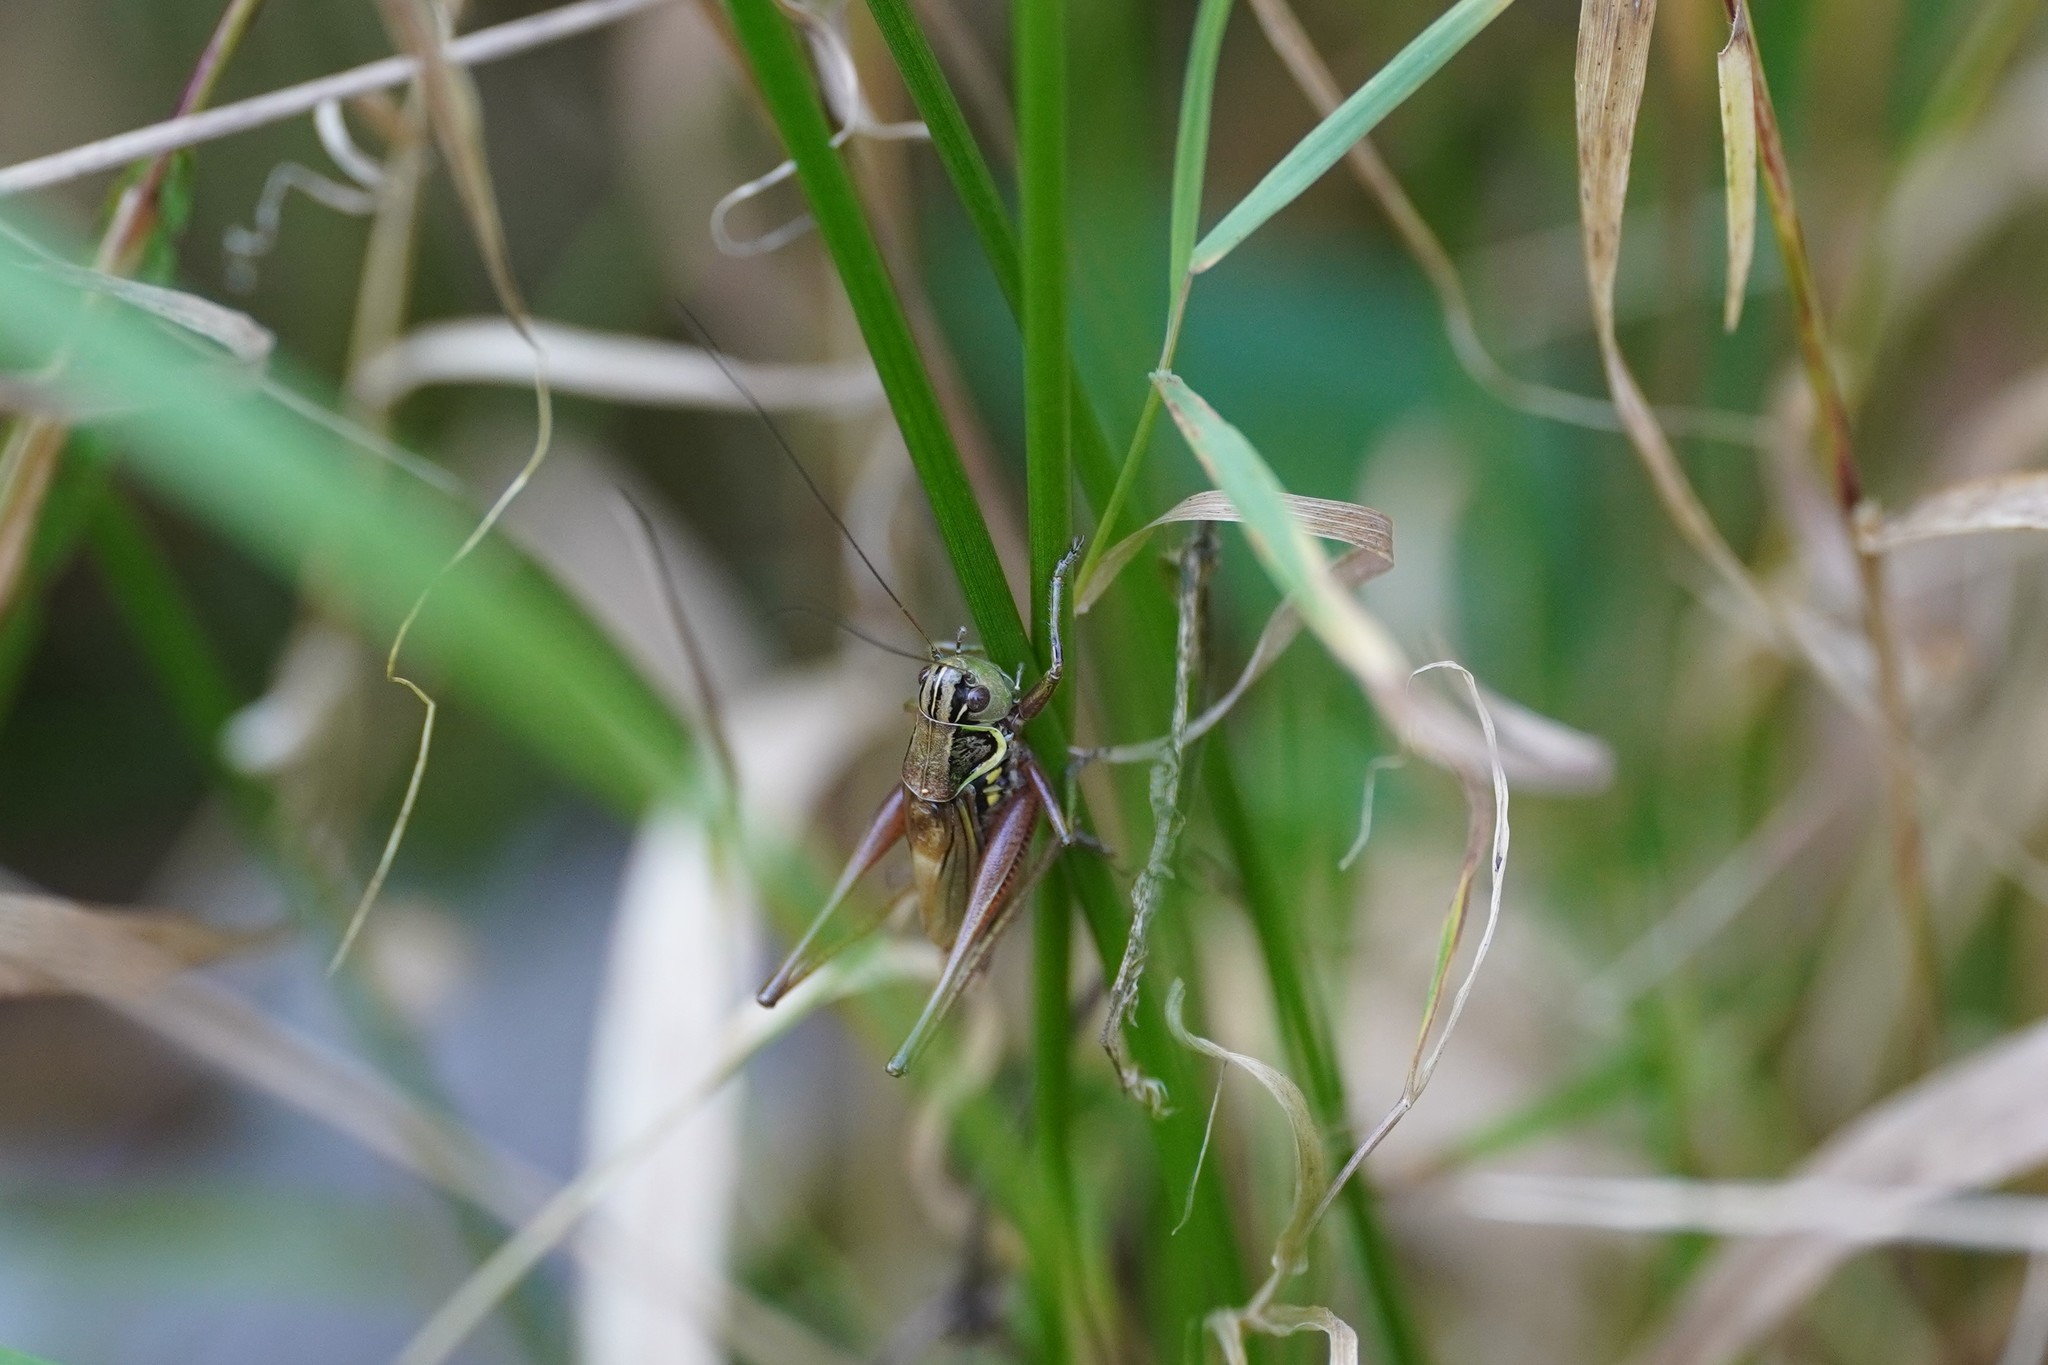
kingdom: Animalia
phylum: Arthropoda
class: Insecta
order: Orthoptera
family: Tettigoniidae
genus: Roeseliana
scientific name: Roeseliana roeselii
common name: Roesel's bush cricket
